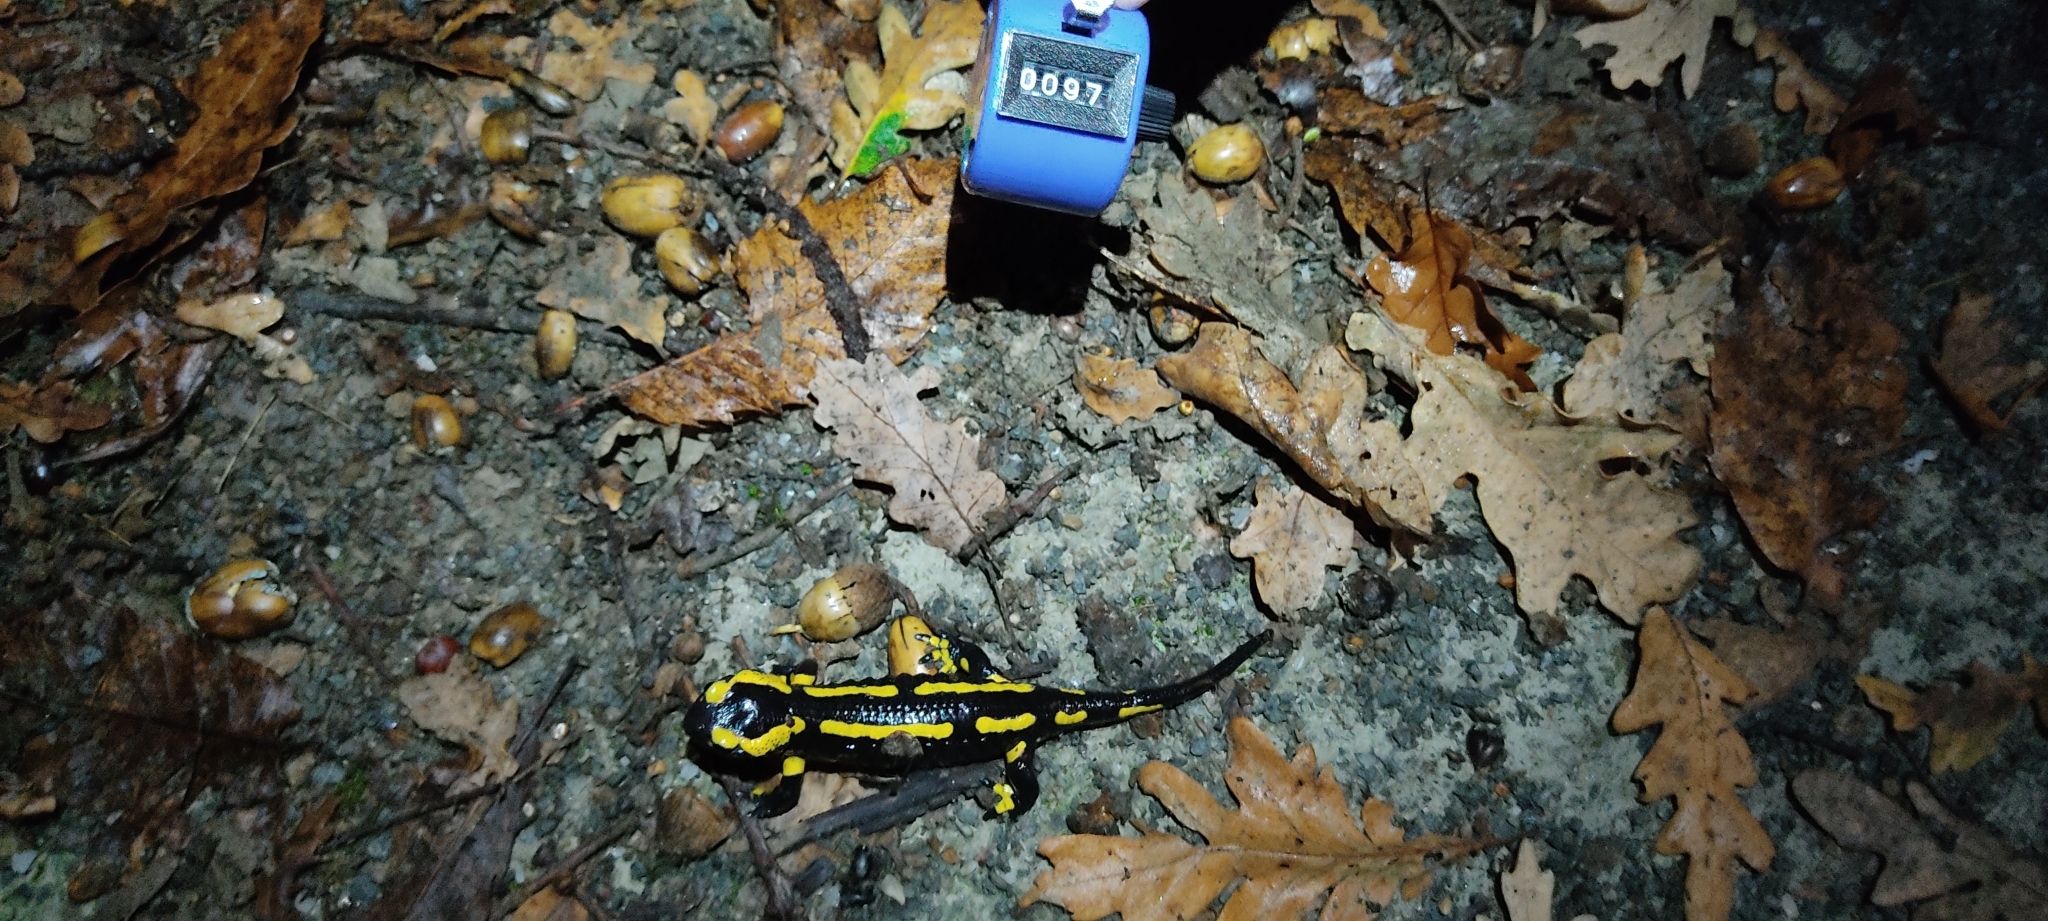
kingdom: Animalia
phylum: Chordata
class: Amphibia
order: Caudata
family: Salamandridae
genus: Salamandra
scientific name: Salamandra salamandra
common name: Fire salamander
